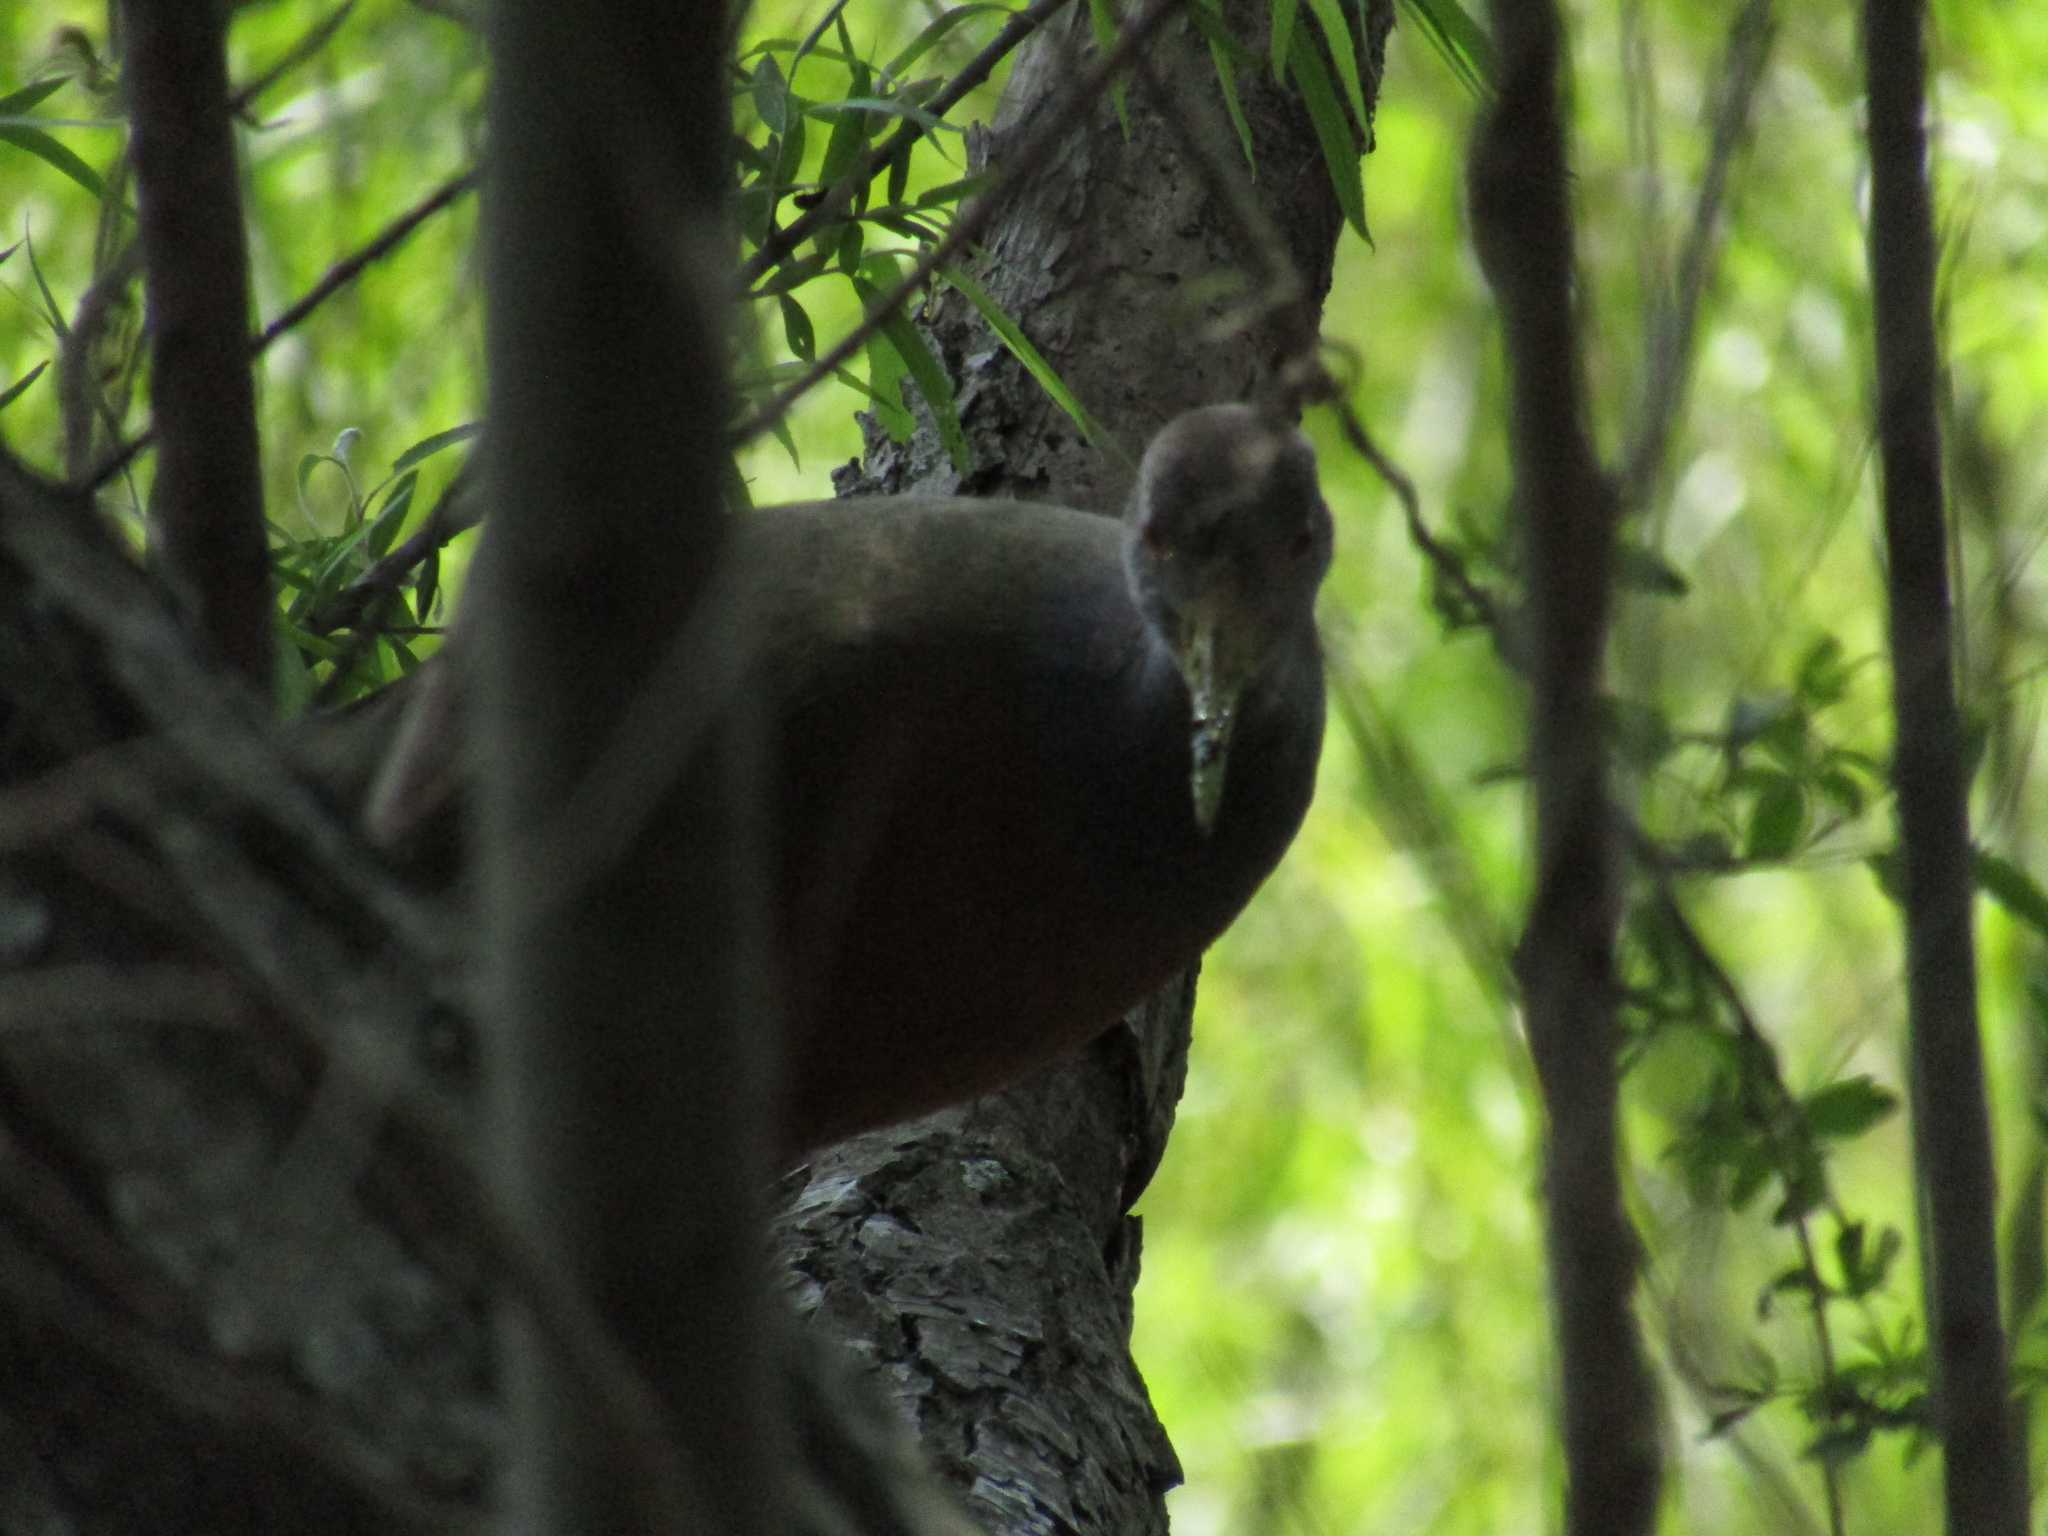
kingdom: Animalia
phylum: Chordata
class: Aves
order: Gruiformes
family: Rallidae
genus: Aramides
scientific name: Aramides cajanea
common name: Gray-necked wood-rail
